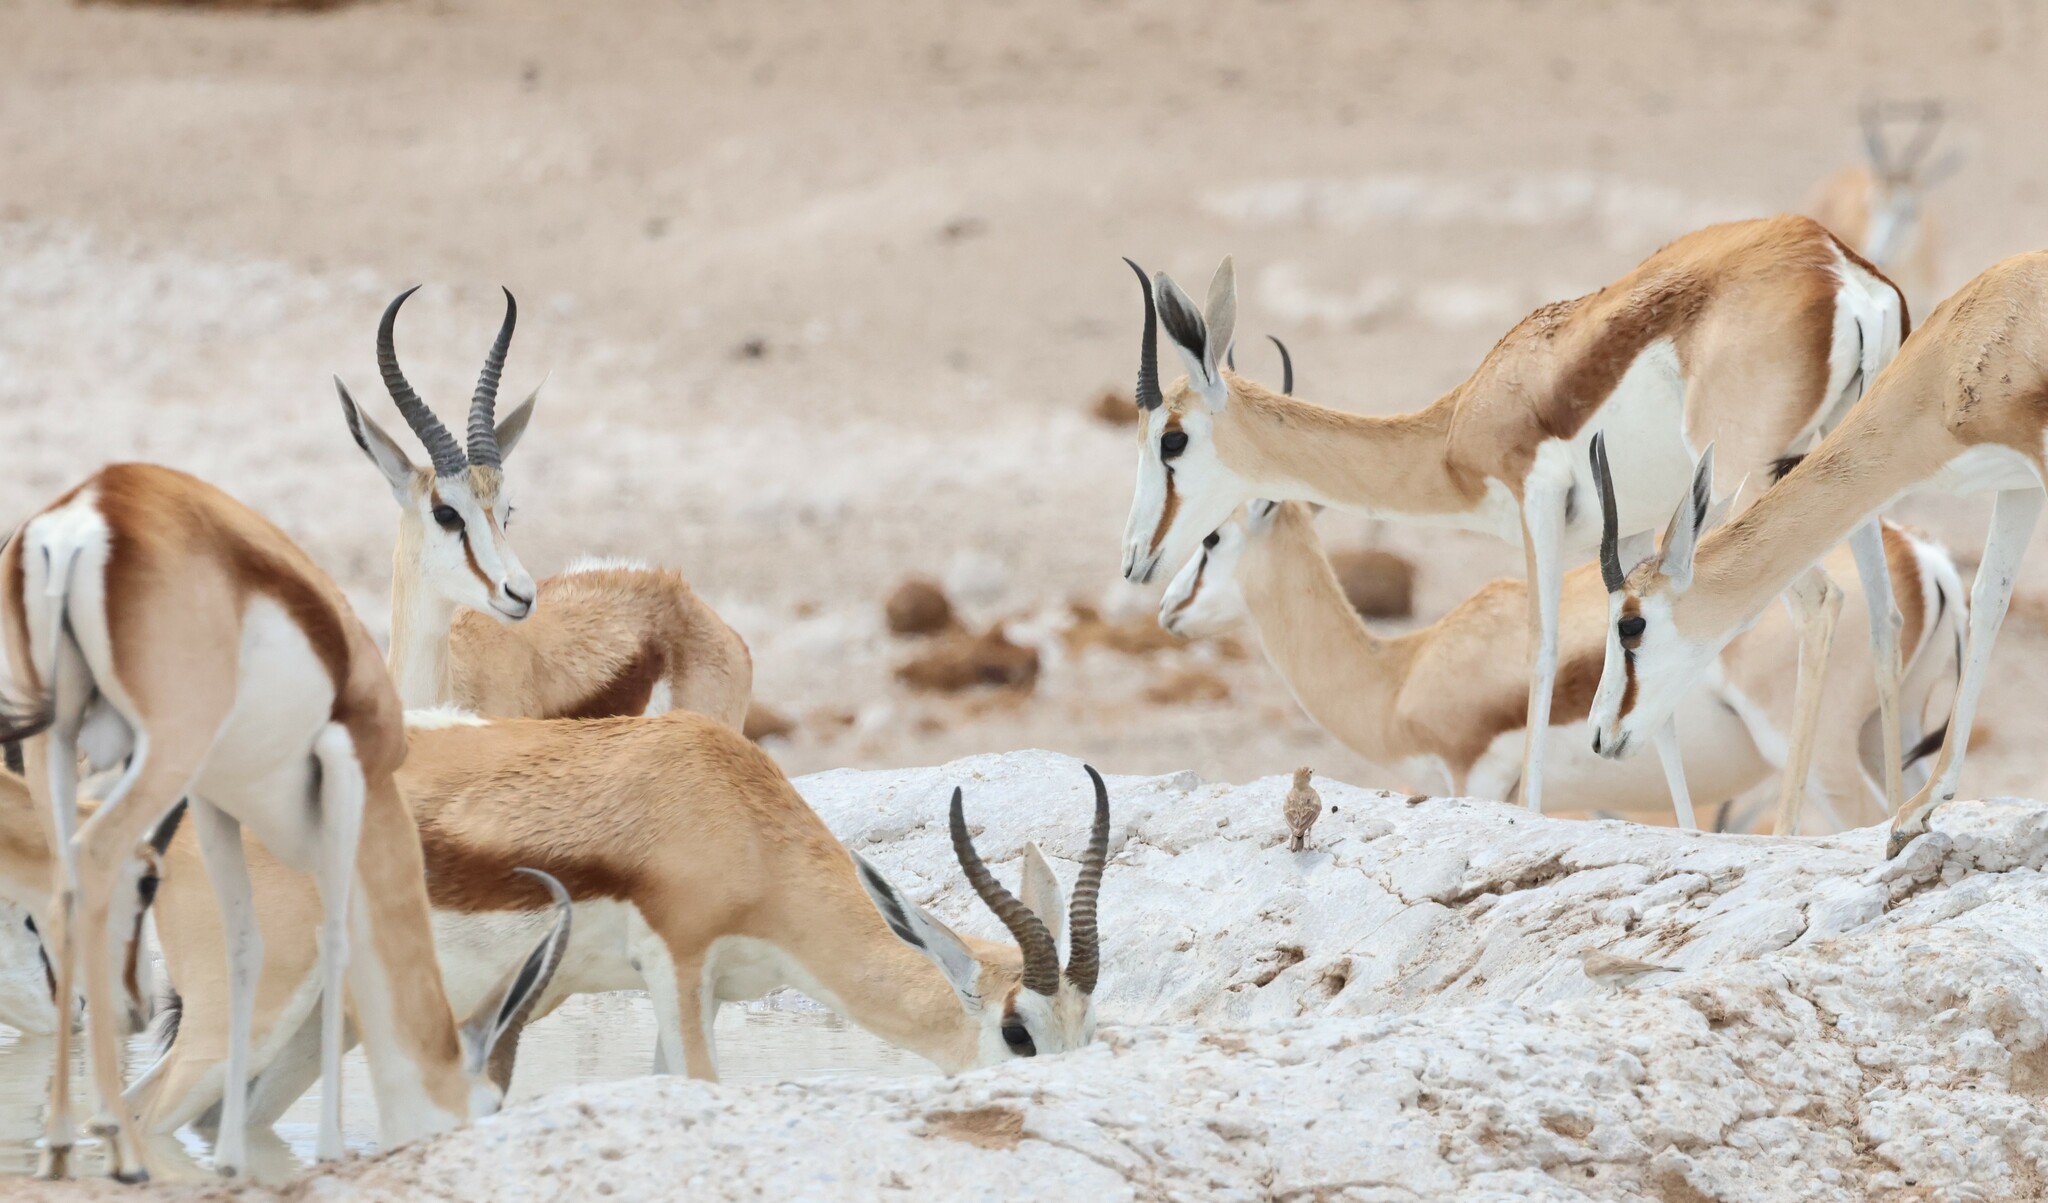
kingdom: Animalia
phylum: Chordata
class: Mammalia
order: Artiodactyla
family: Bovidae
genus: Antidorcas
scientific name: Antidorcas marsupialis
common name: Springbok
